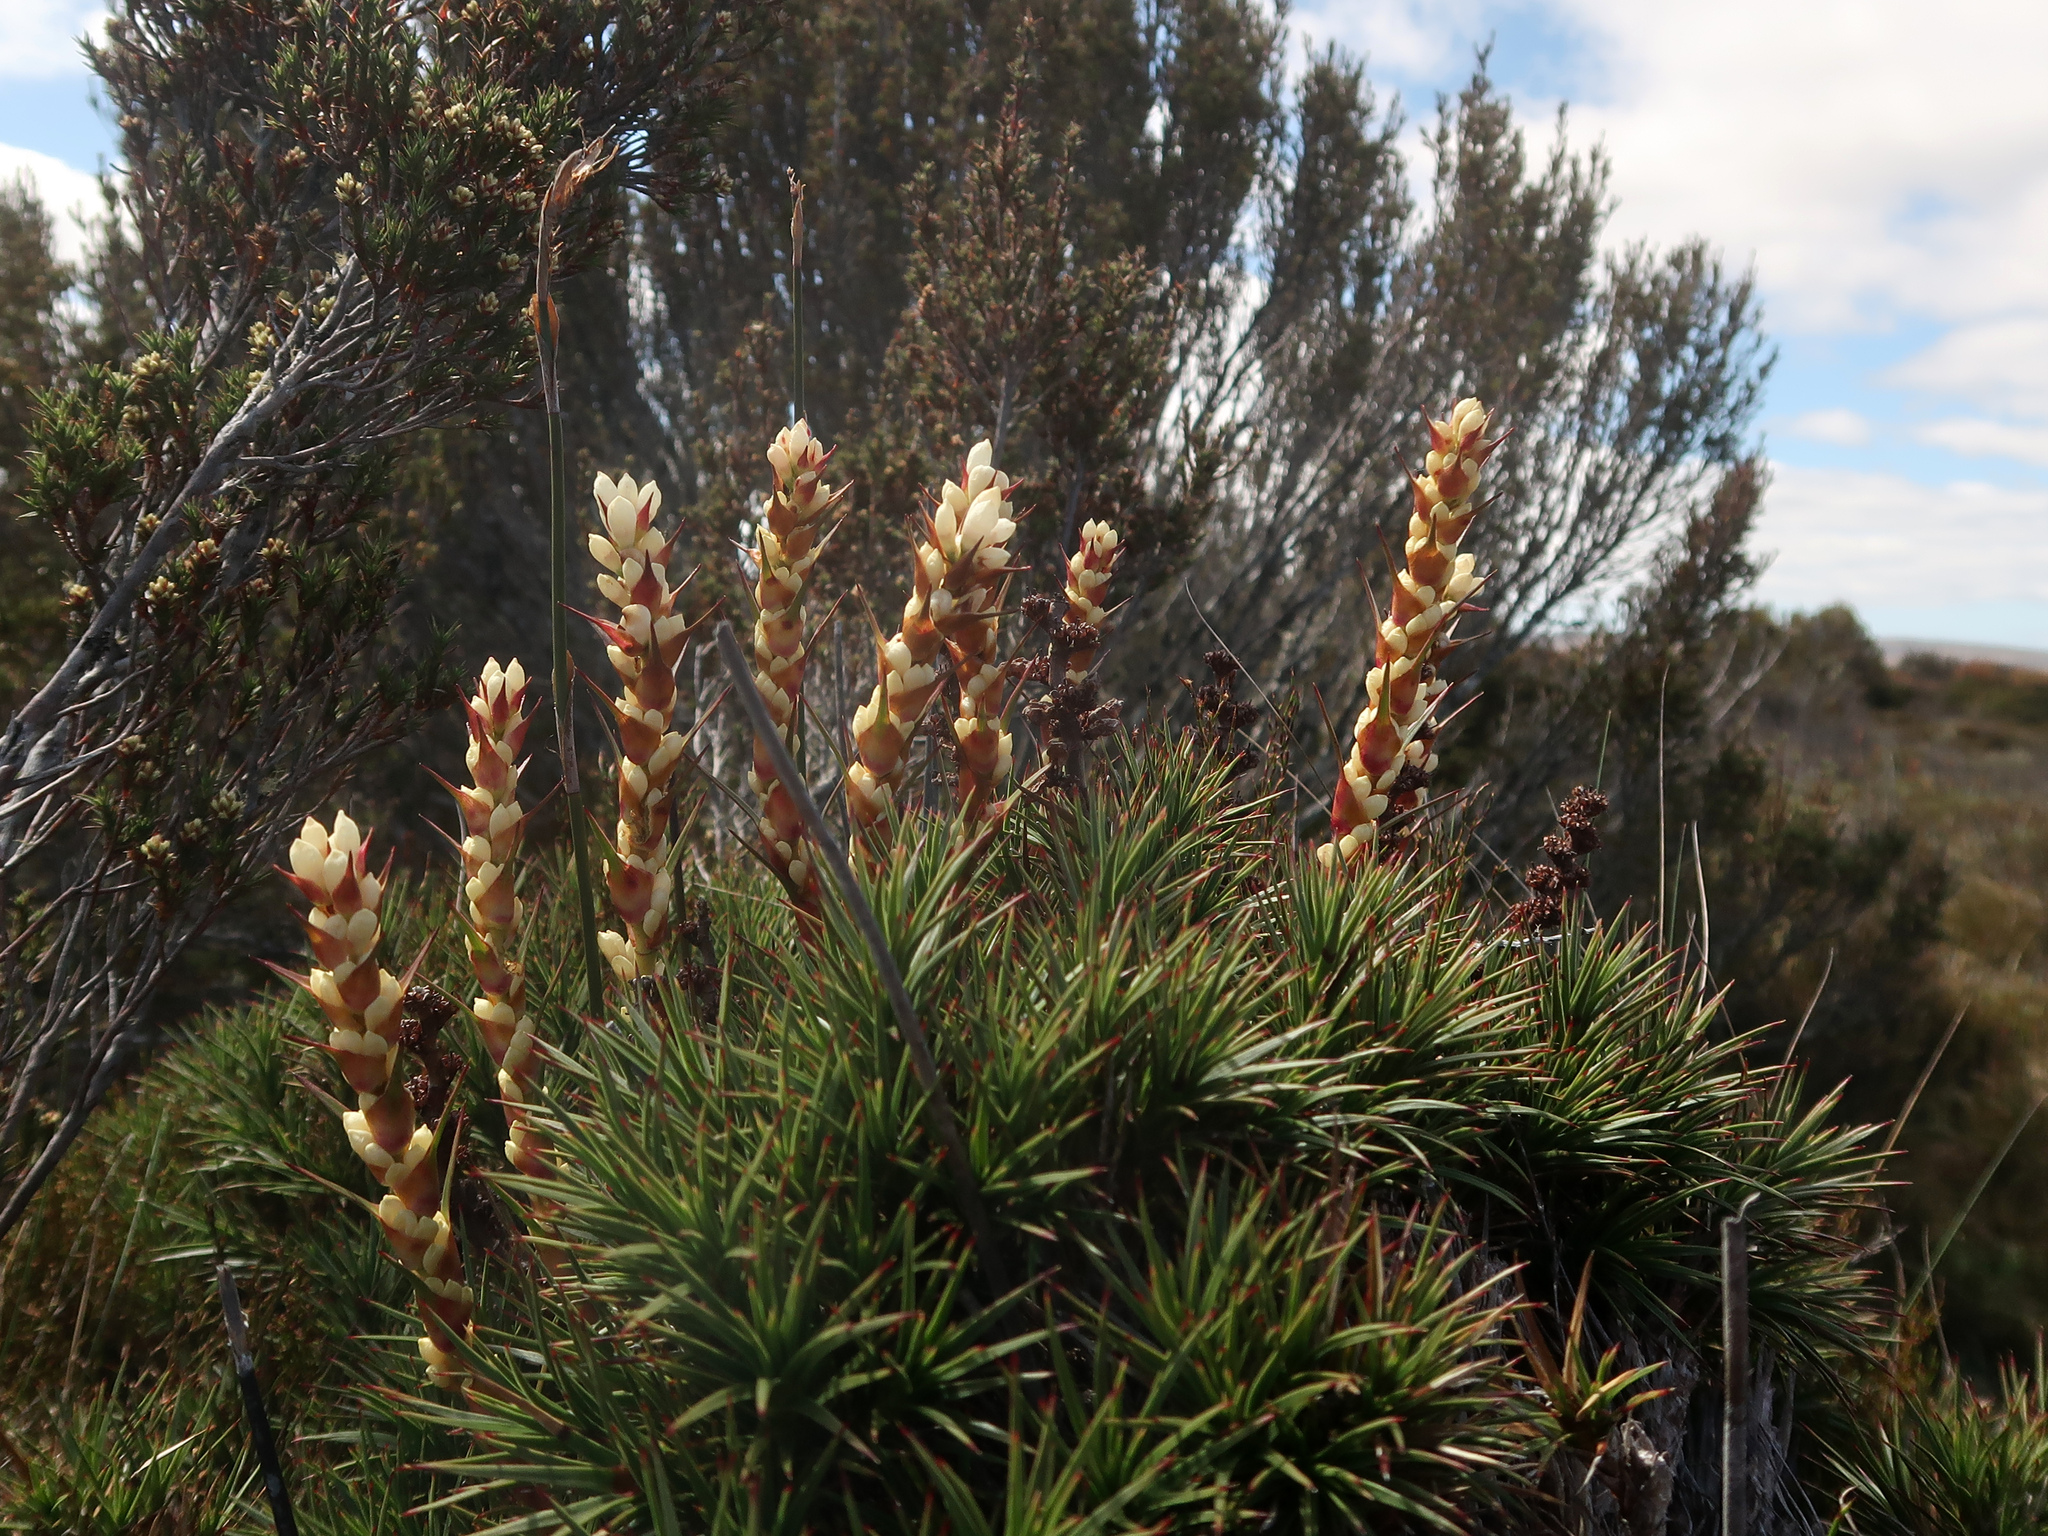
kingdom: Plantae
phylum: Tracheophyta
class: Magnoliopsida
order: Ericales
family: Ericaceae
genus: Dracophyllum
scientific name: Dracophyllum persistentifolium
